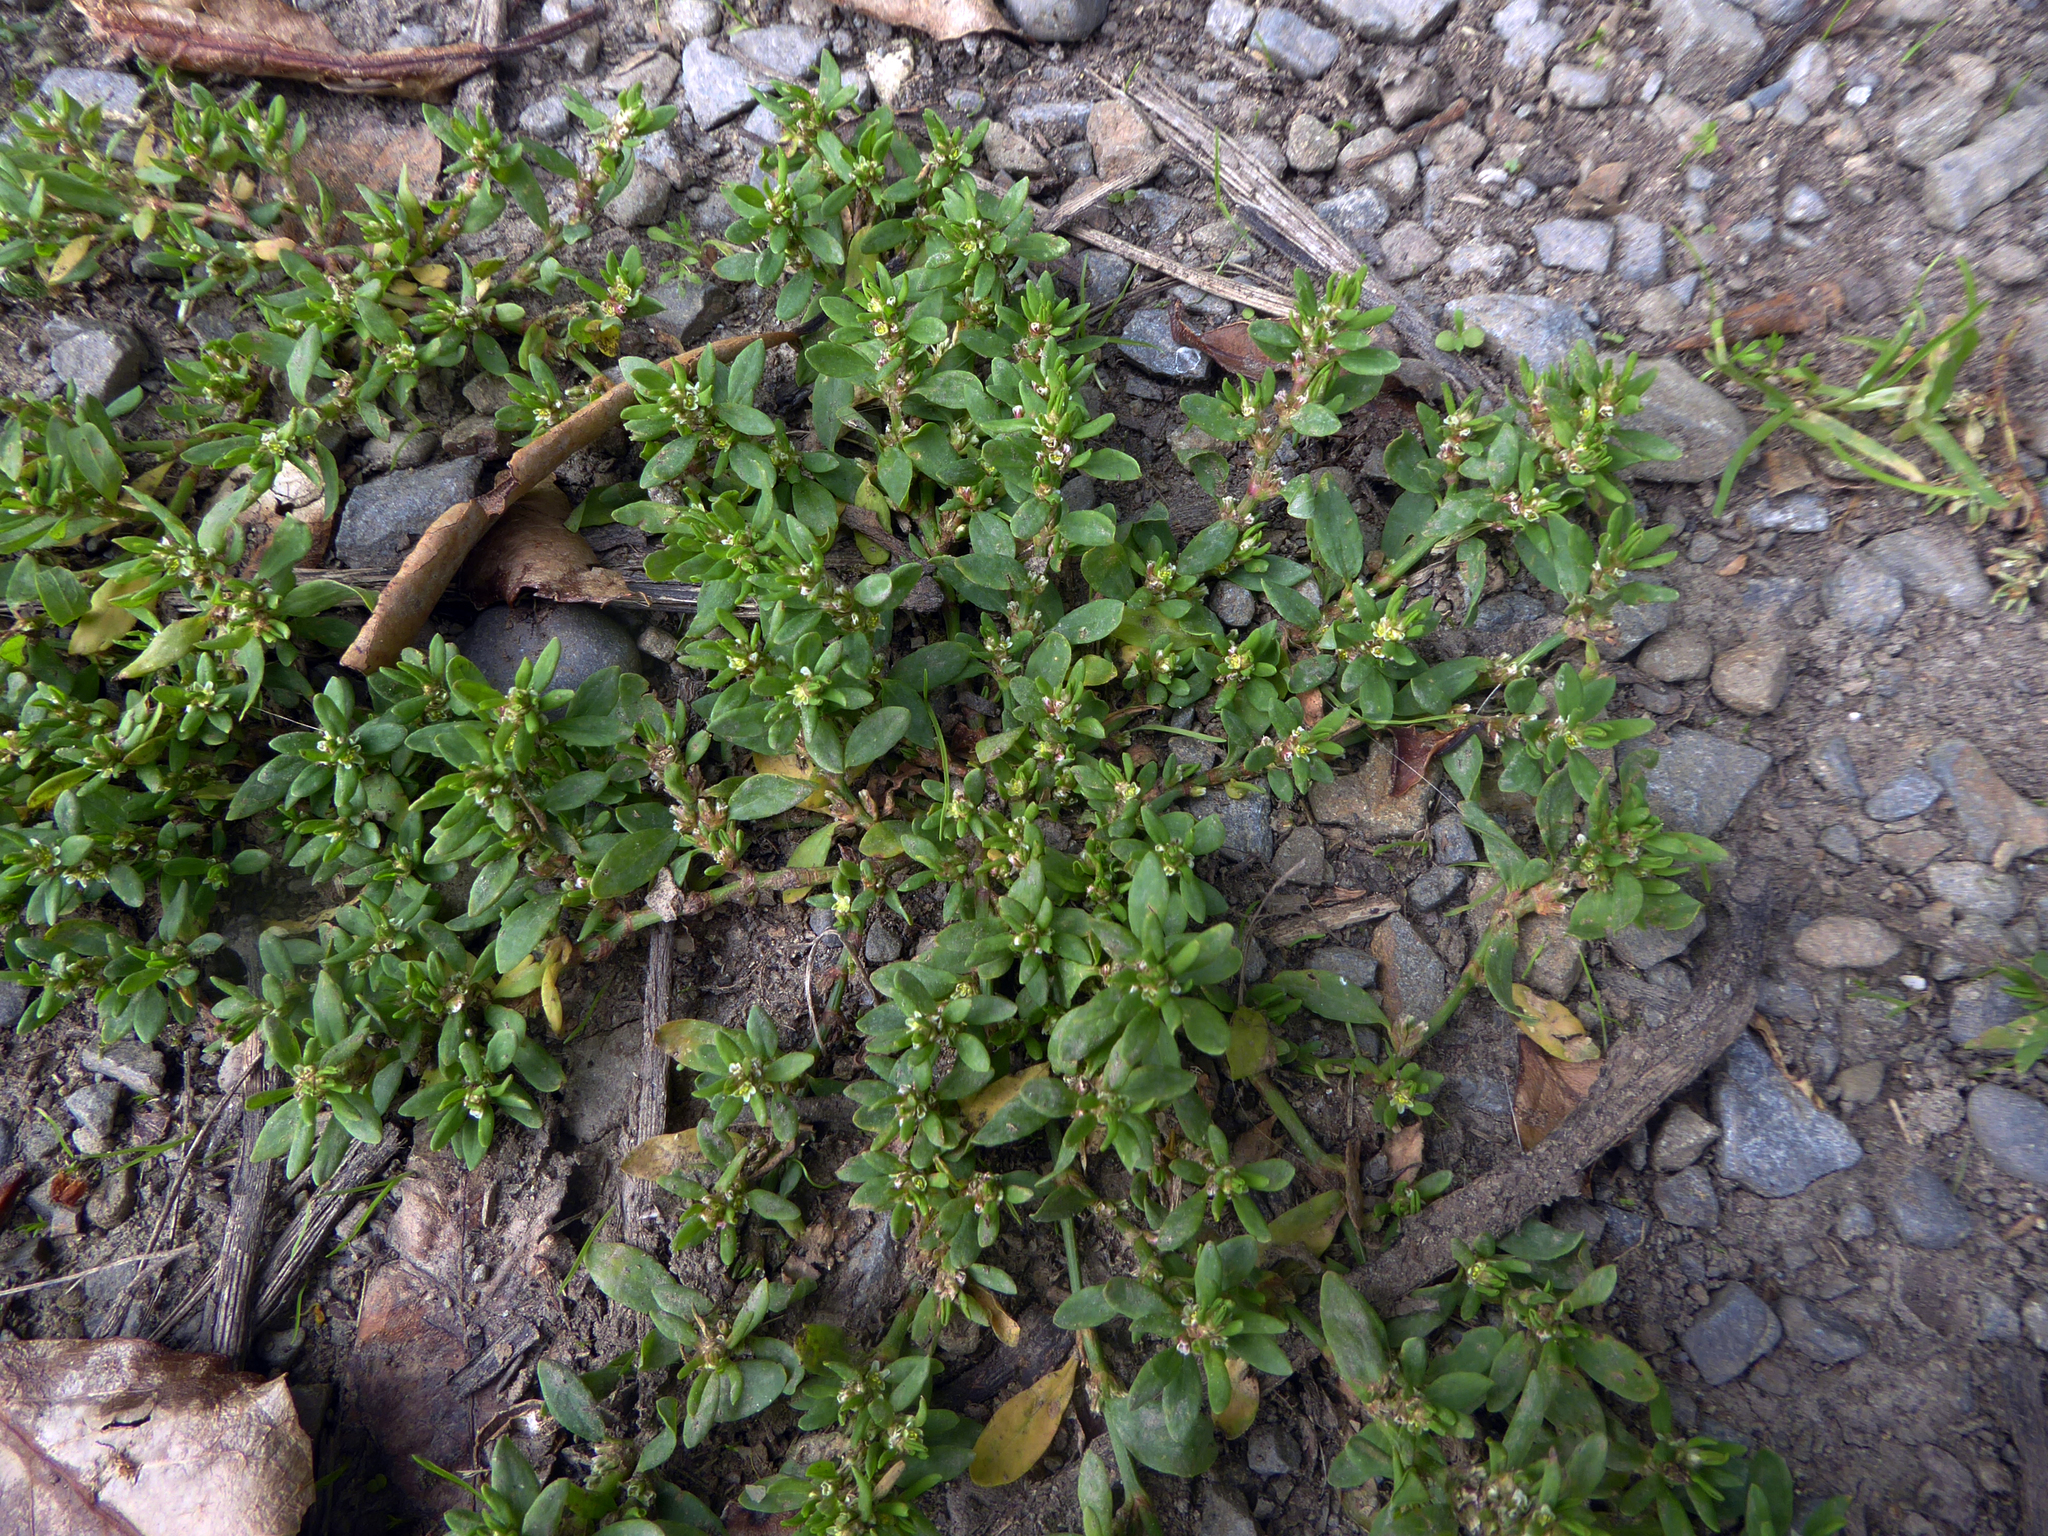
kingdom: Plantae
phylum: Tracheophyta
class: Magnoliopsida
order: Caryophyllales
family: Polygonaceae
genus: Polygonum
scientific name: Polygonum aviculare
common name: Prostrate knotweed
